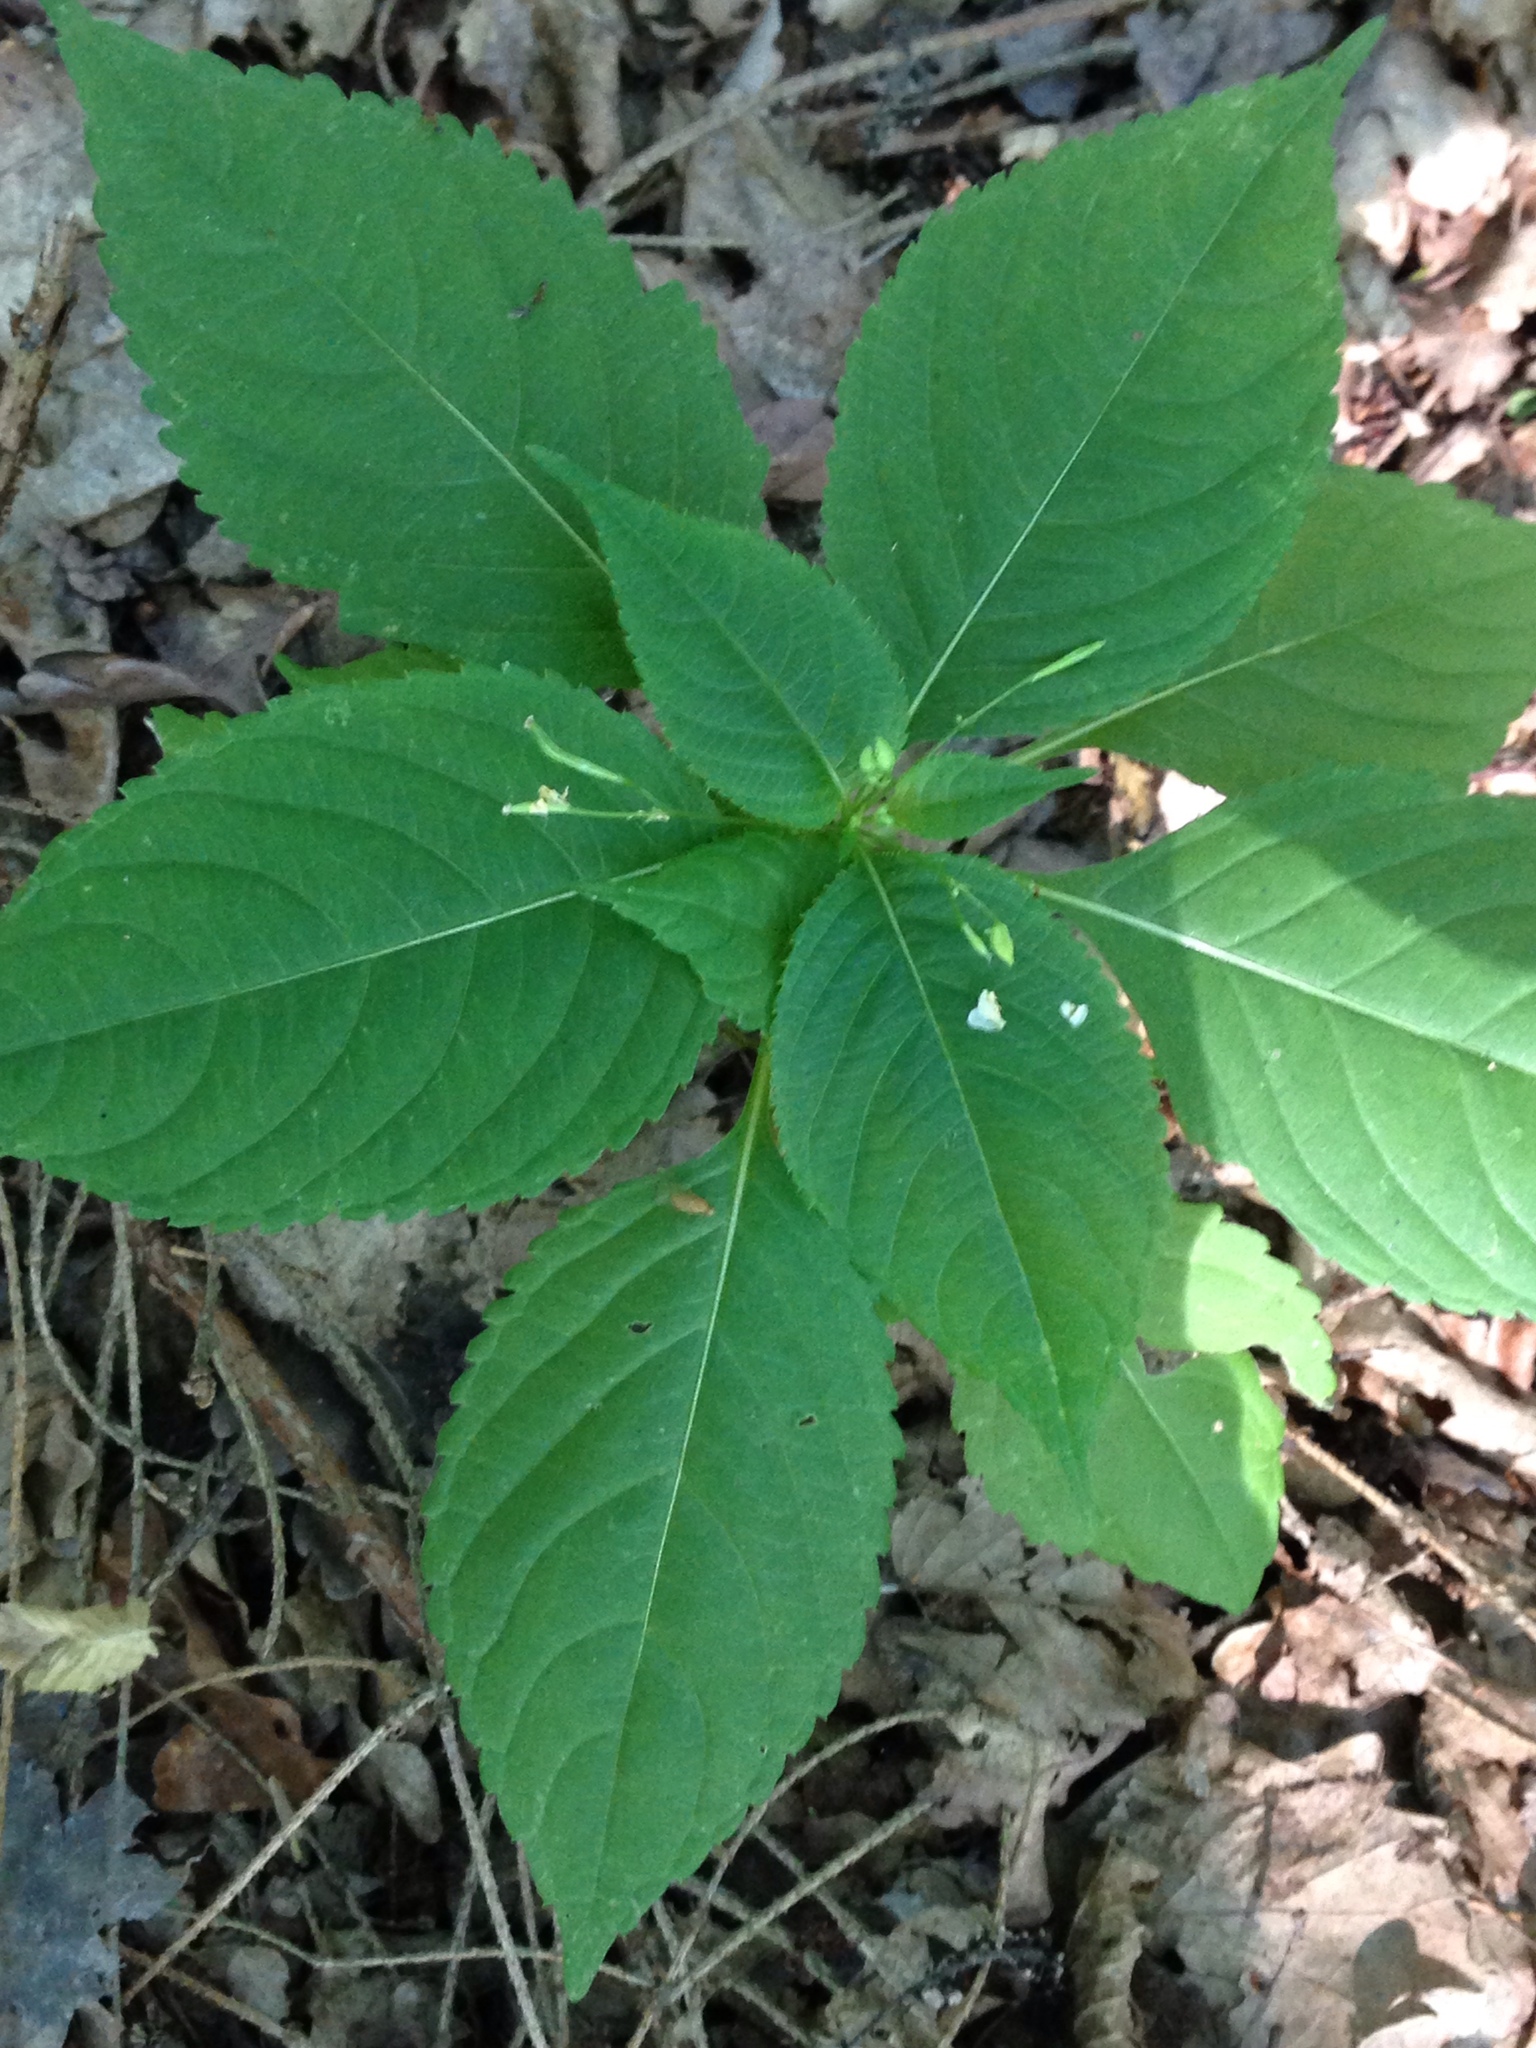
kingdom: Plantae
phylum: Tracheophyta
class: Magnoliopsida
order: Ericales
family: Balsaminaceae
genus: Impatiens
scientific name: Impatiens parviflora
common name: Small balsam
